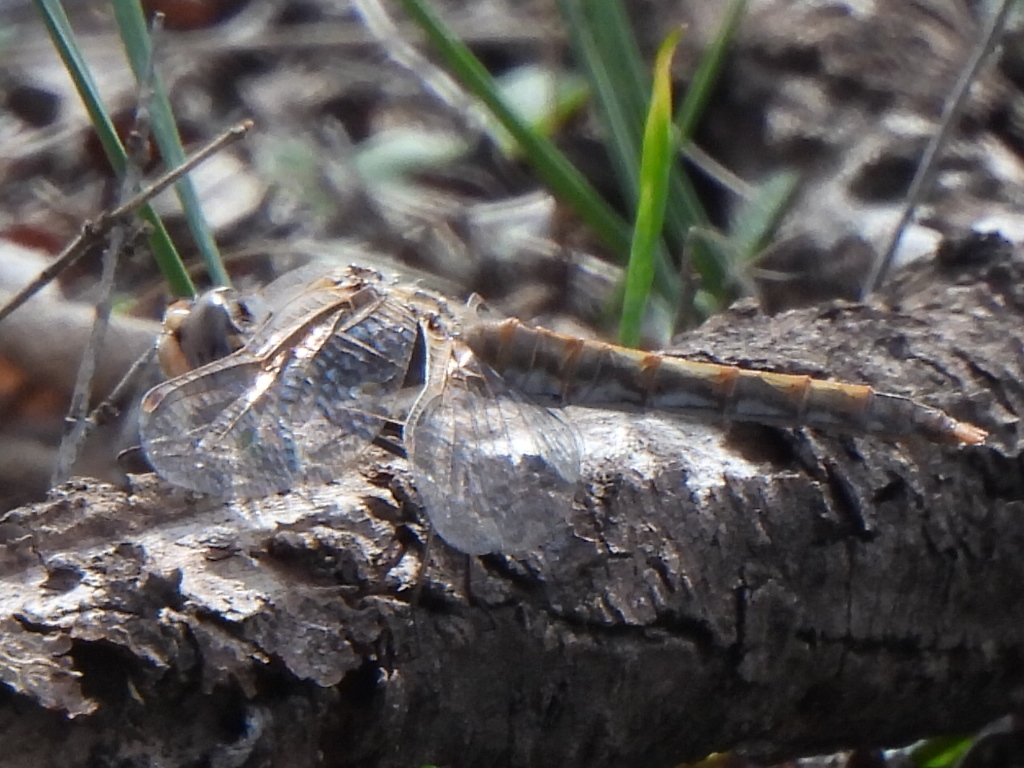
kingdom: Animalia
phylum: Arthropoda
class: Insecta
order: Odonata
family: Libellulidae
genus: Sympetrum
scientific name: Sympetrum corruptum
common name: Variegated meadowhawk
